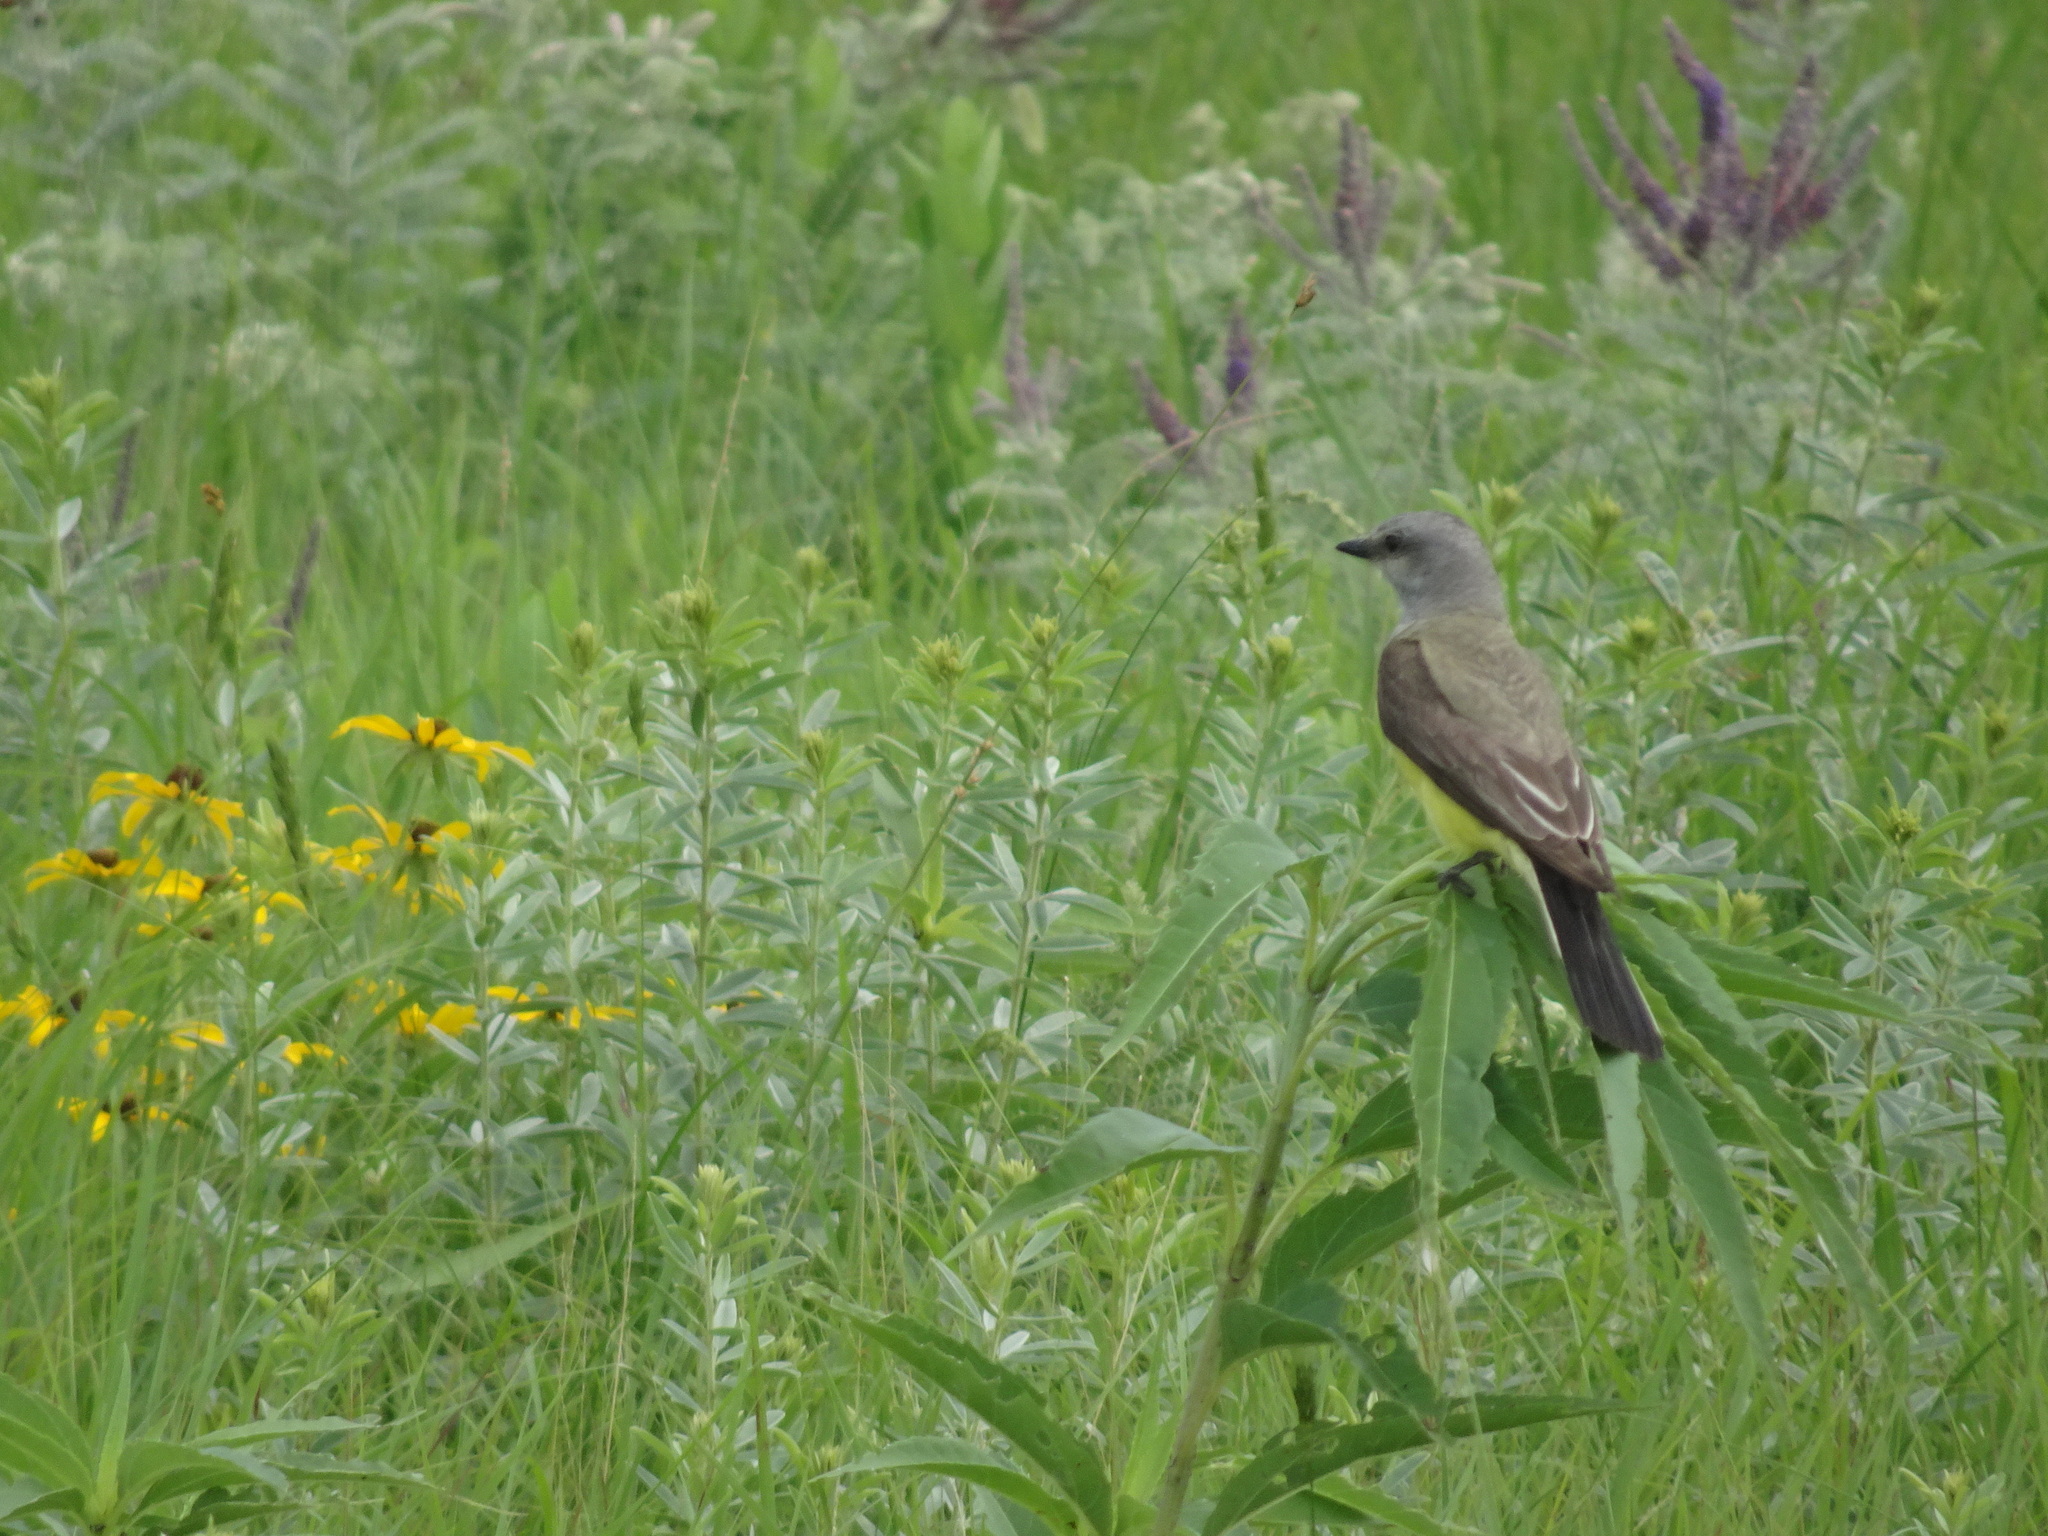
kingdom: Animalia
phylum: Chordata
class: Aves
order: Passeriformes
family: Tyrannidae
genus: Tyrannus
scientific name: Tyrannus verticalis
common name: Western kingbird
